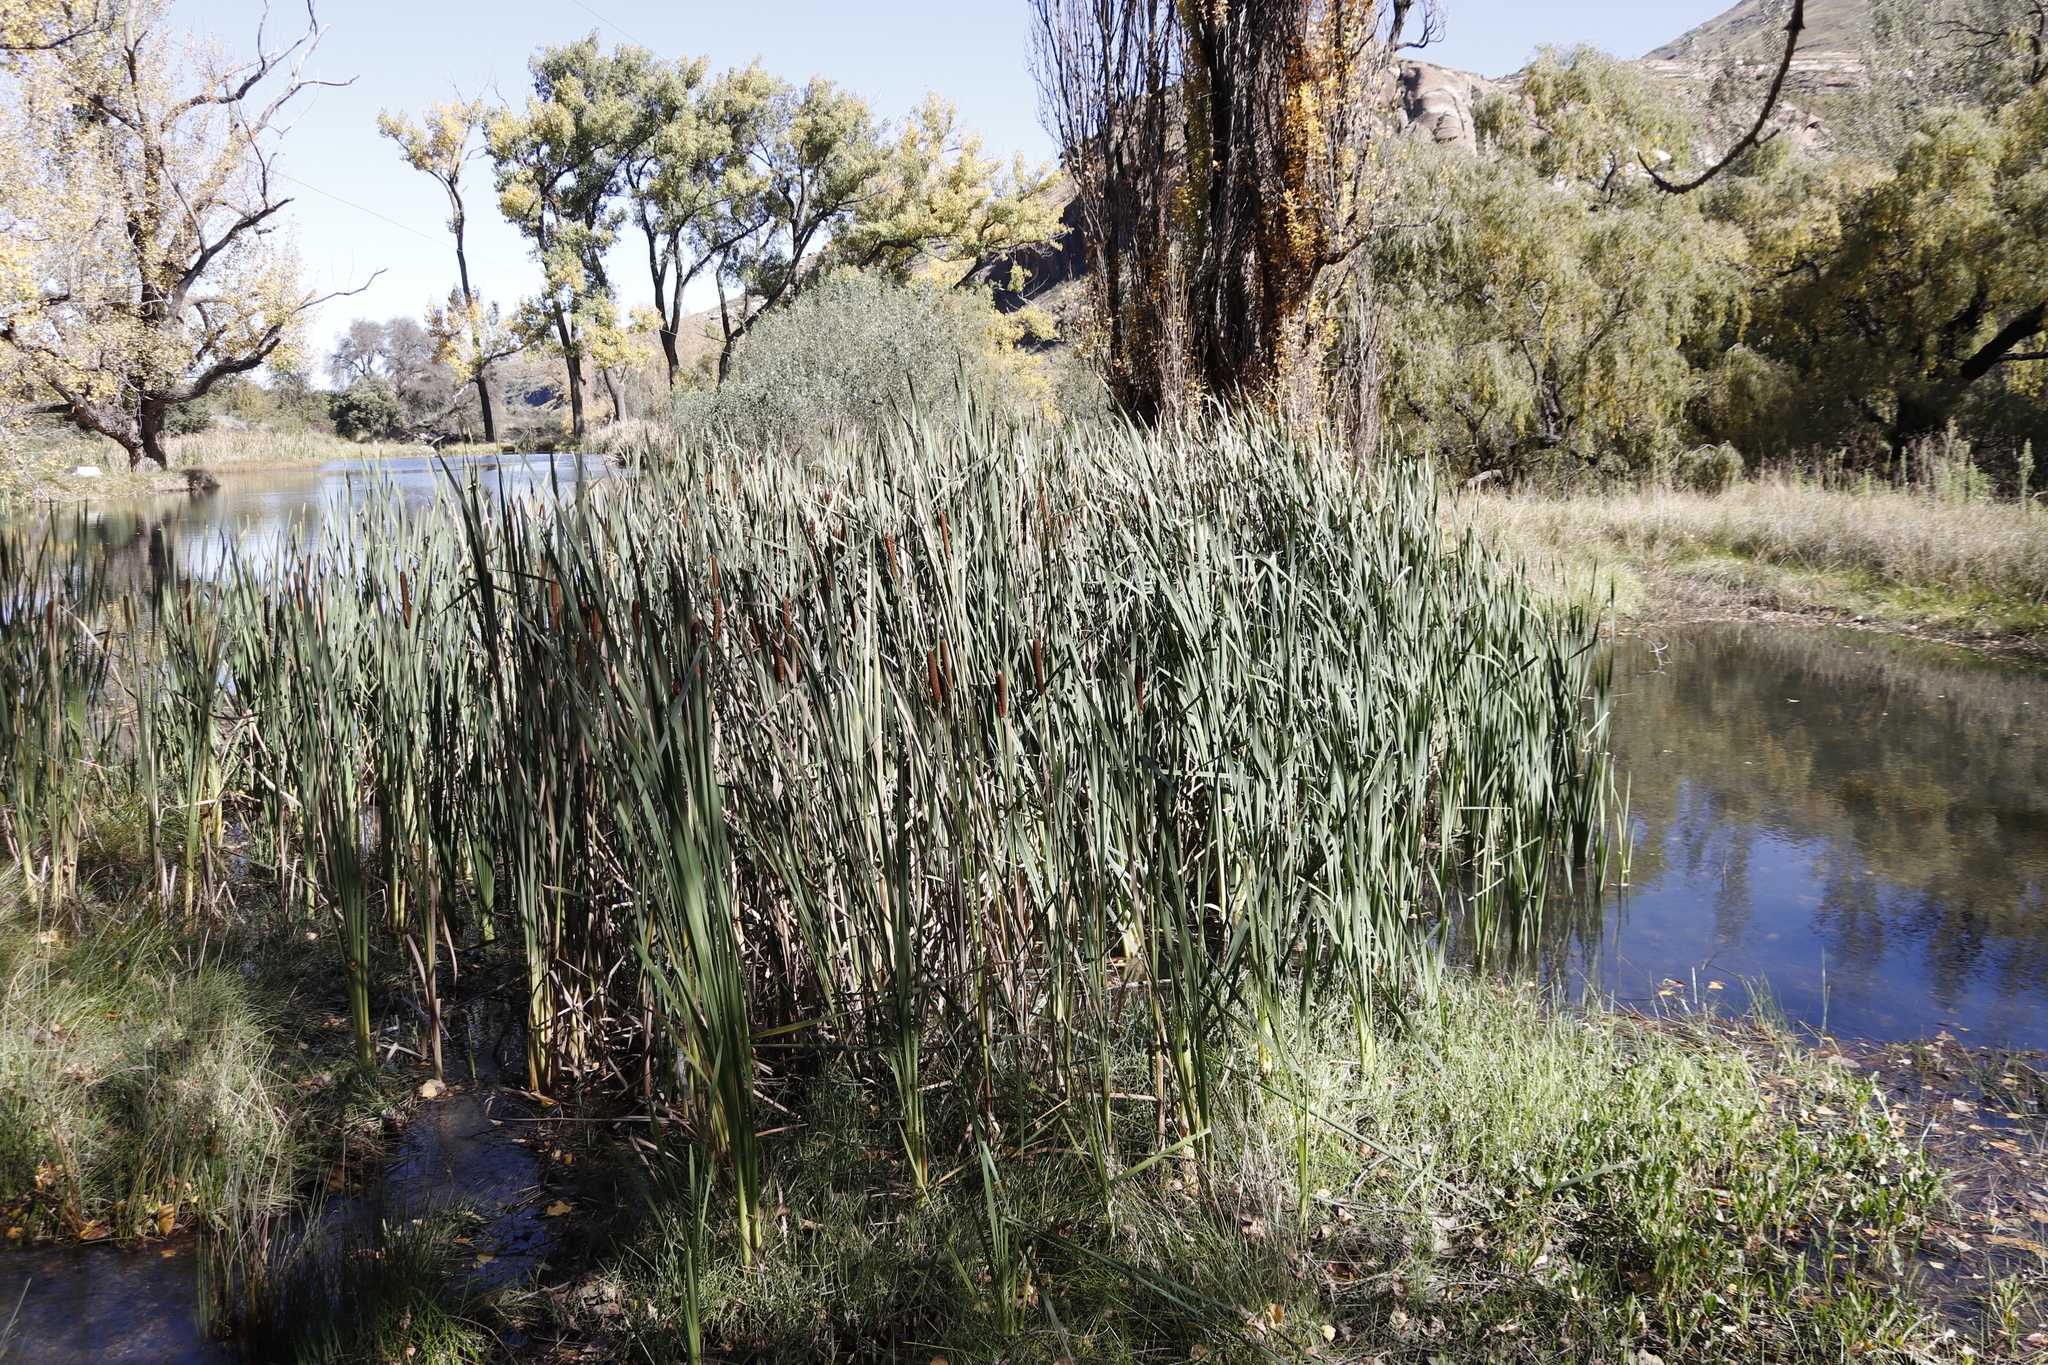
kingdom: Plantae
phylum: Tracheophyta
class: Liliopsida
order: Poales
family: Typhaceae
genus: Typha
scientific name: Typha capensis
